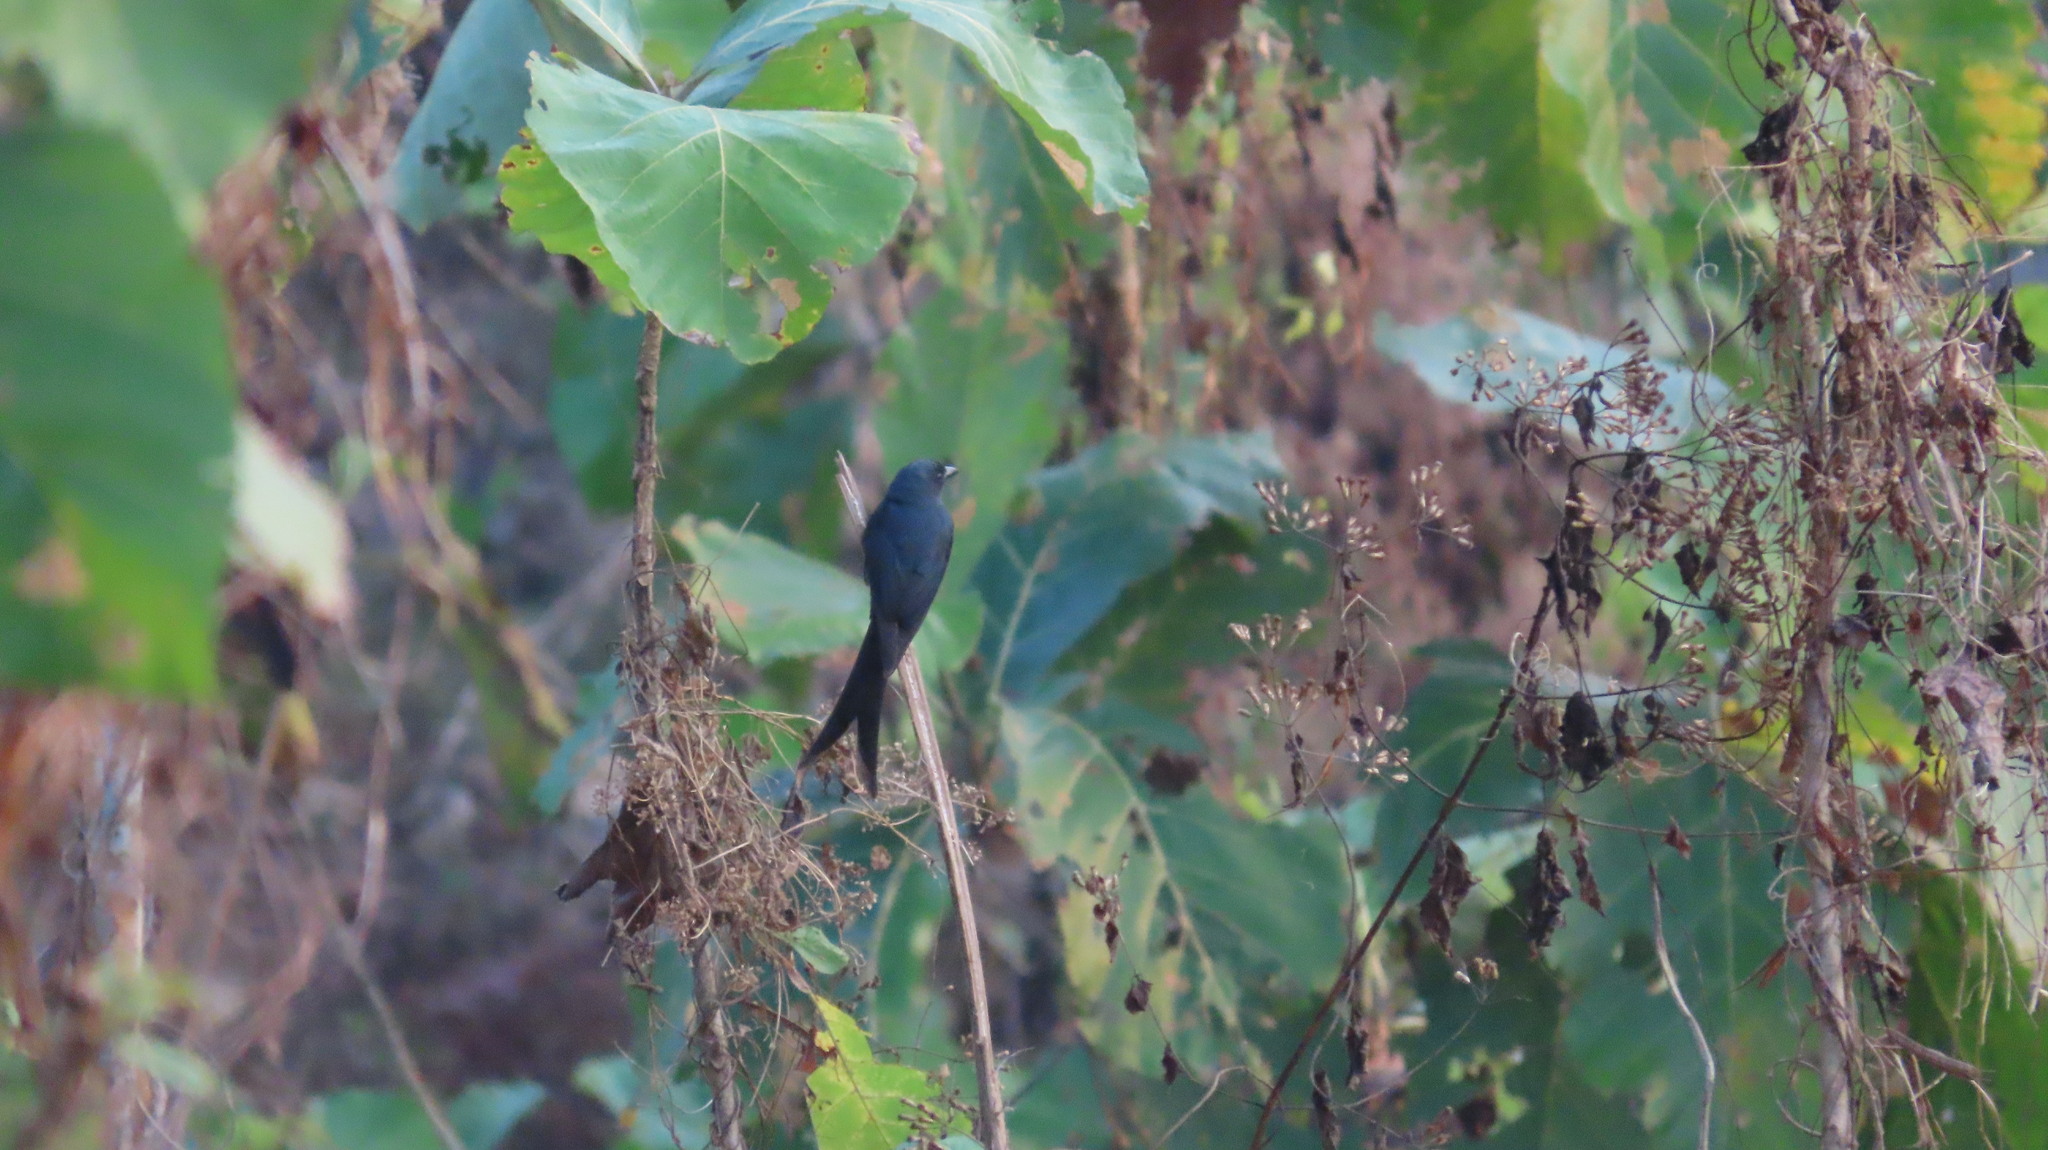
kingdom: Animalia
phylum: Chordata
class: Aves
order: Passeriformes
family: Dicruridae
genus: Dicrurus
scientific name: Dicrurus leucophaeus
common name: Ashy drongo
